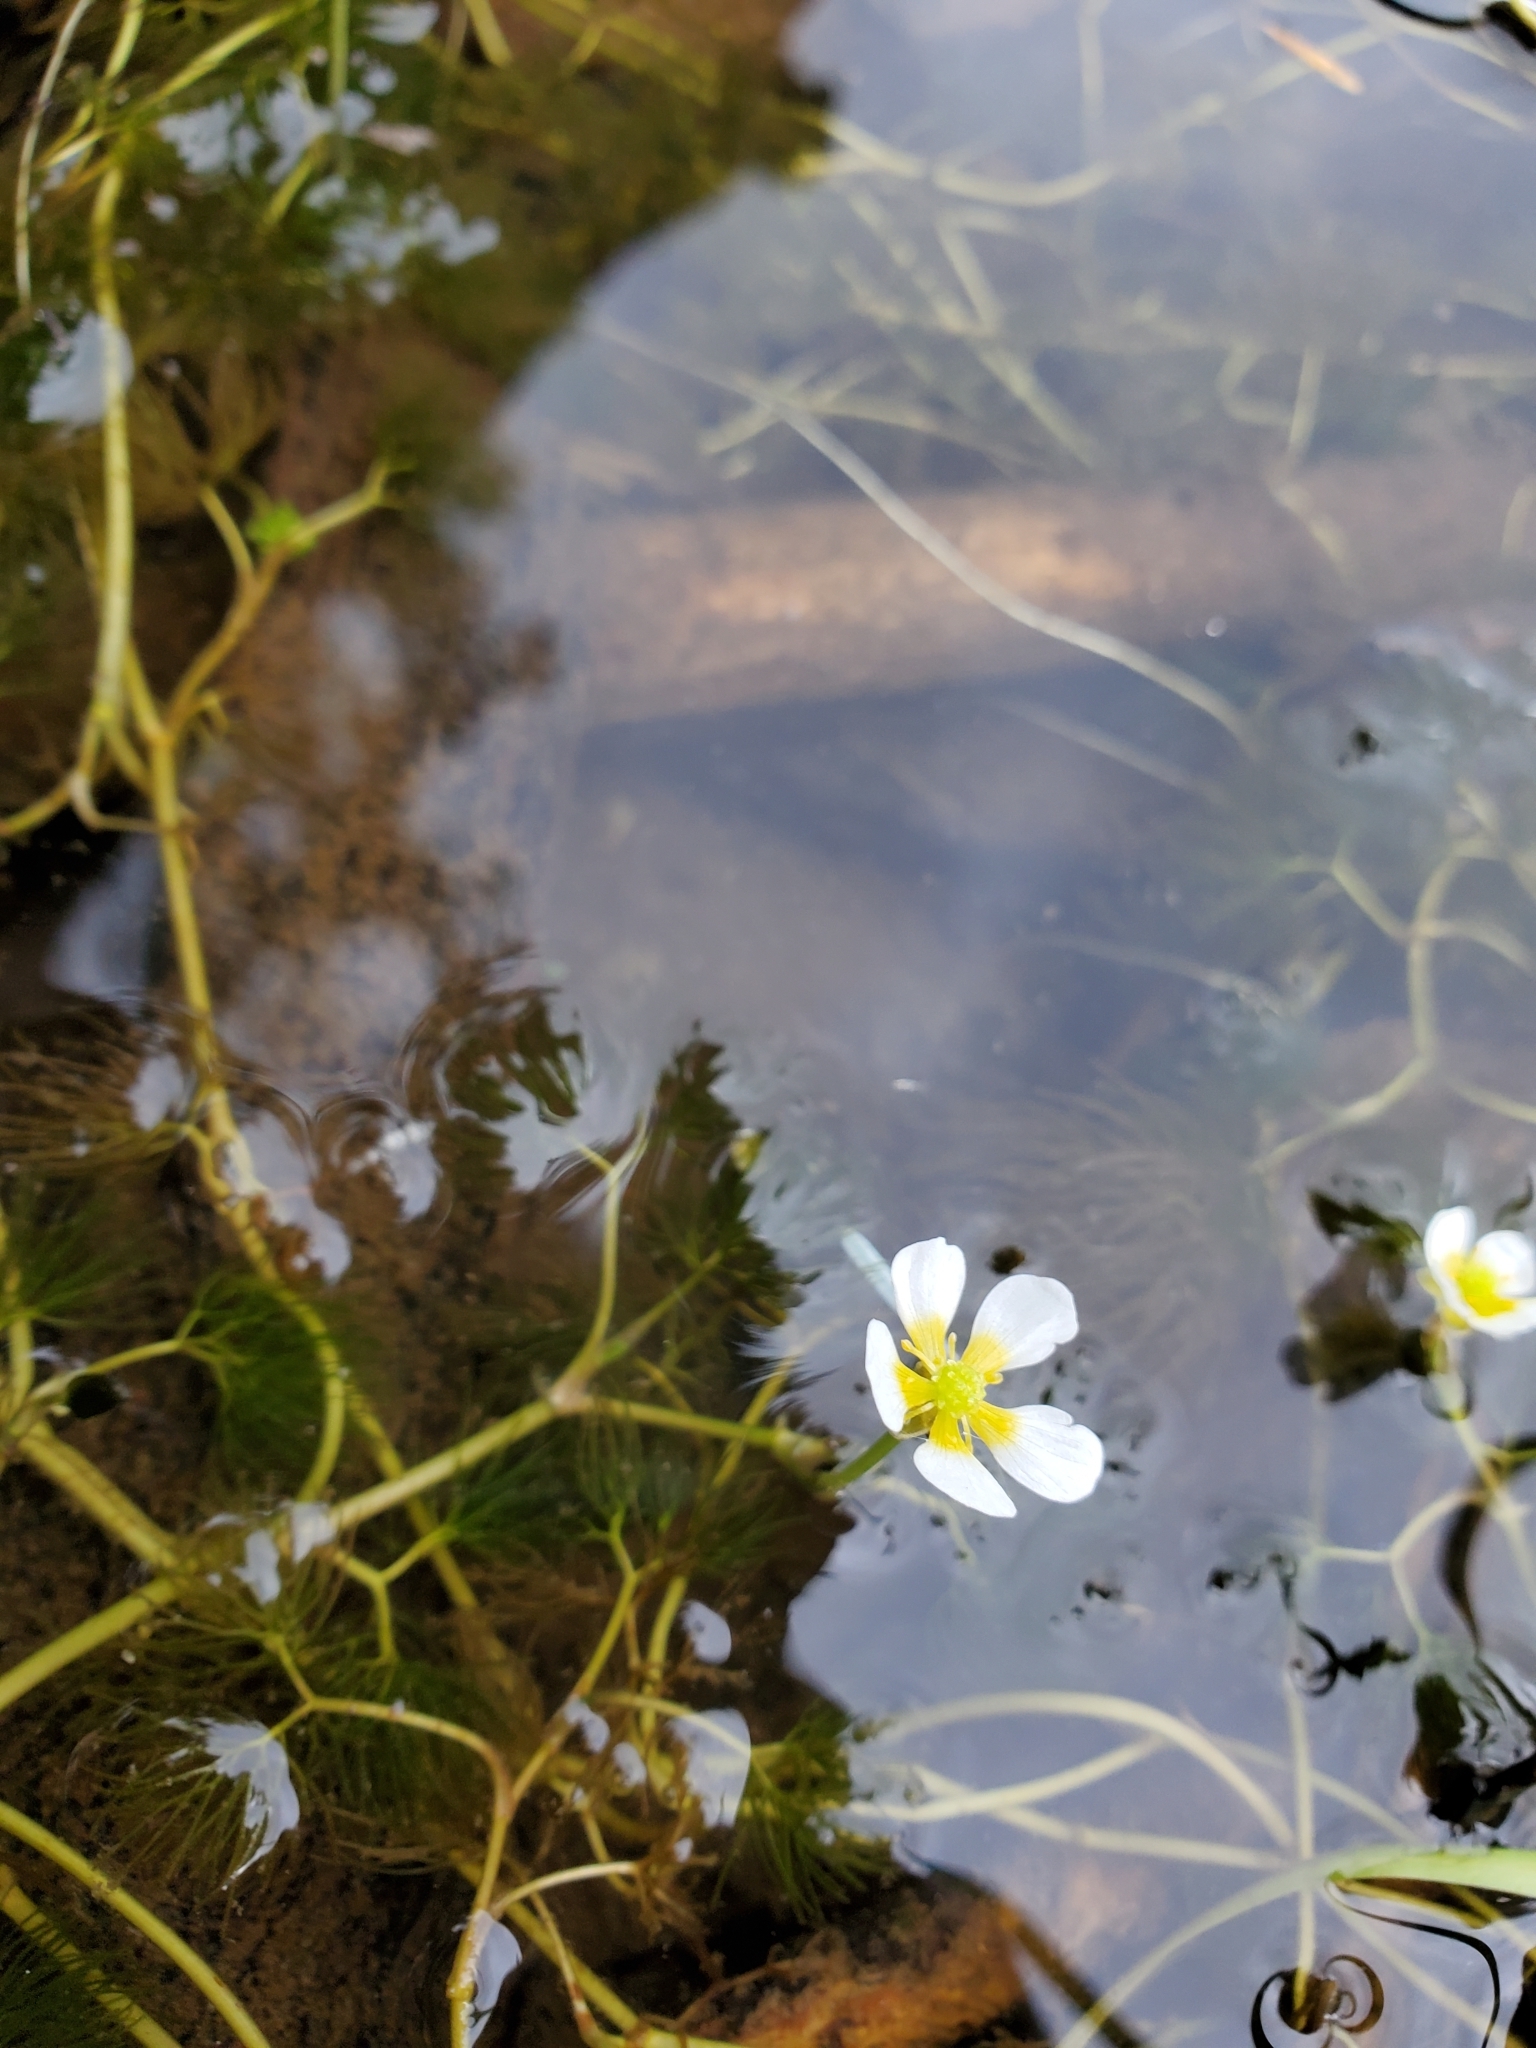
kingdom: Plantae
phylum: Tracheophyta
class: Magnoliopsida
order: Ranunculales
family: Ranunculaceae
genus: Ranunculus
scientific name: Ranunculus aquatilis
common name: Common water-crowfoot
